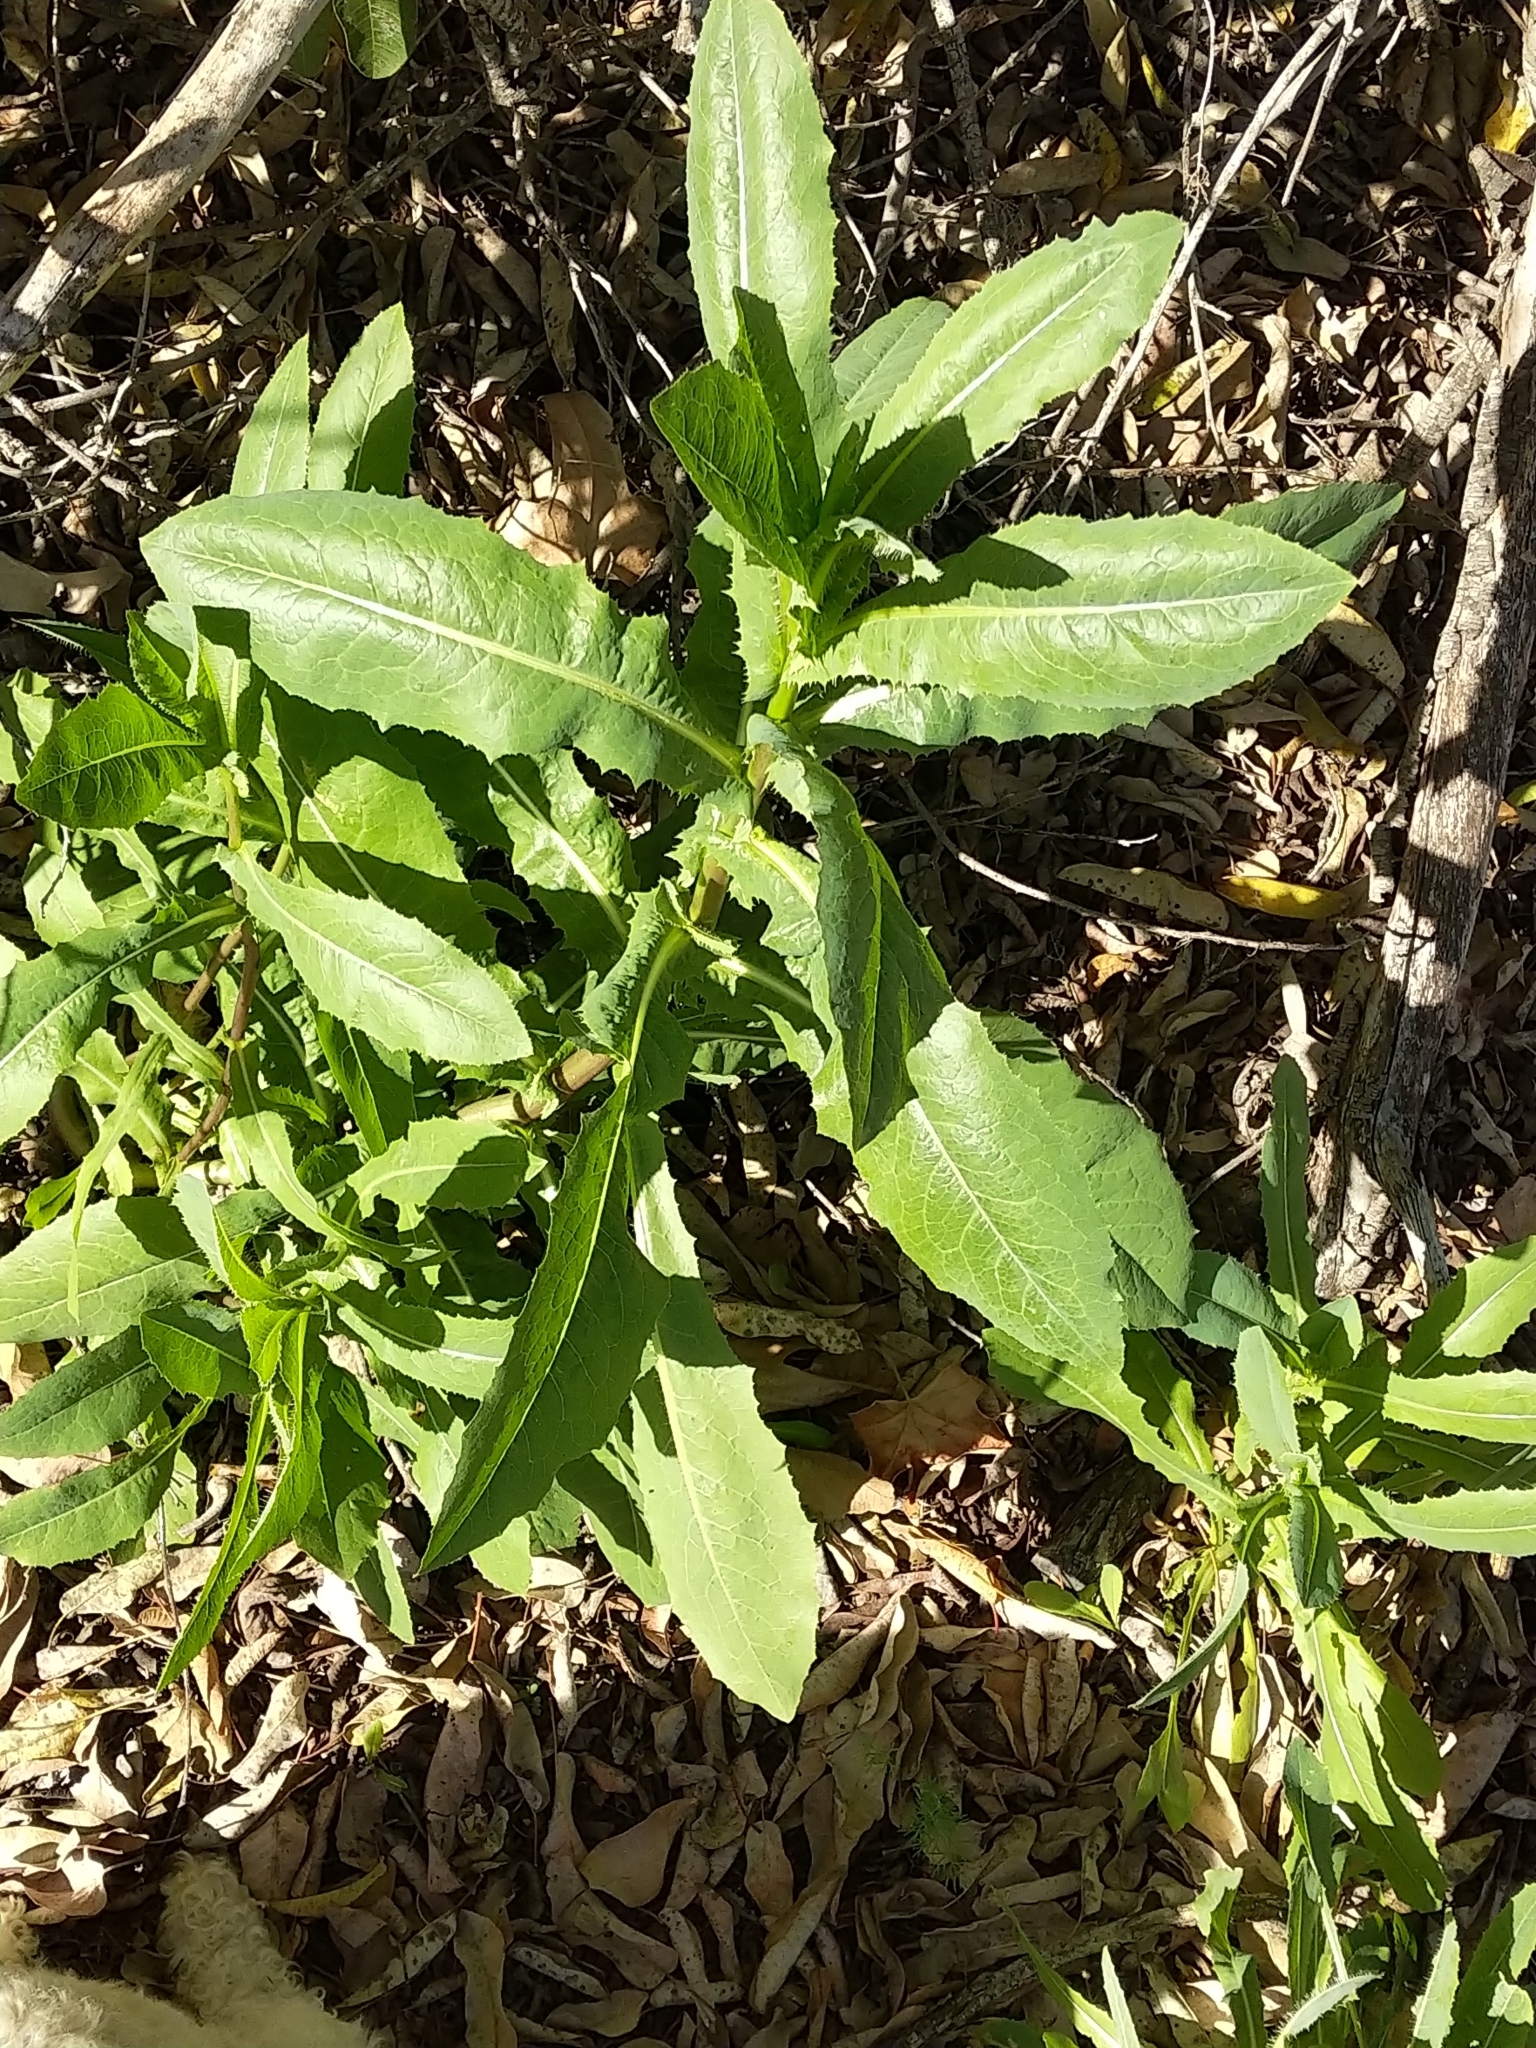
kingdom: Plantae
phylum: Tracheophyta
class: Magnoliopsida
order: Asterales
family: Asteraceae
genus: Lactuca
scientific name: Lactuca serriola
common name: Prickly lettuce
